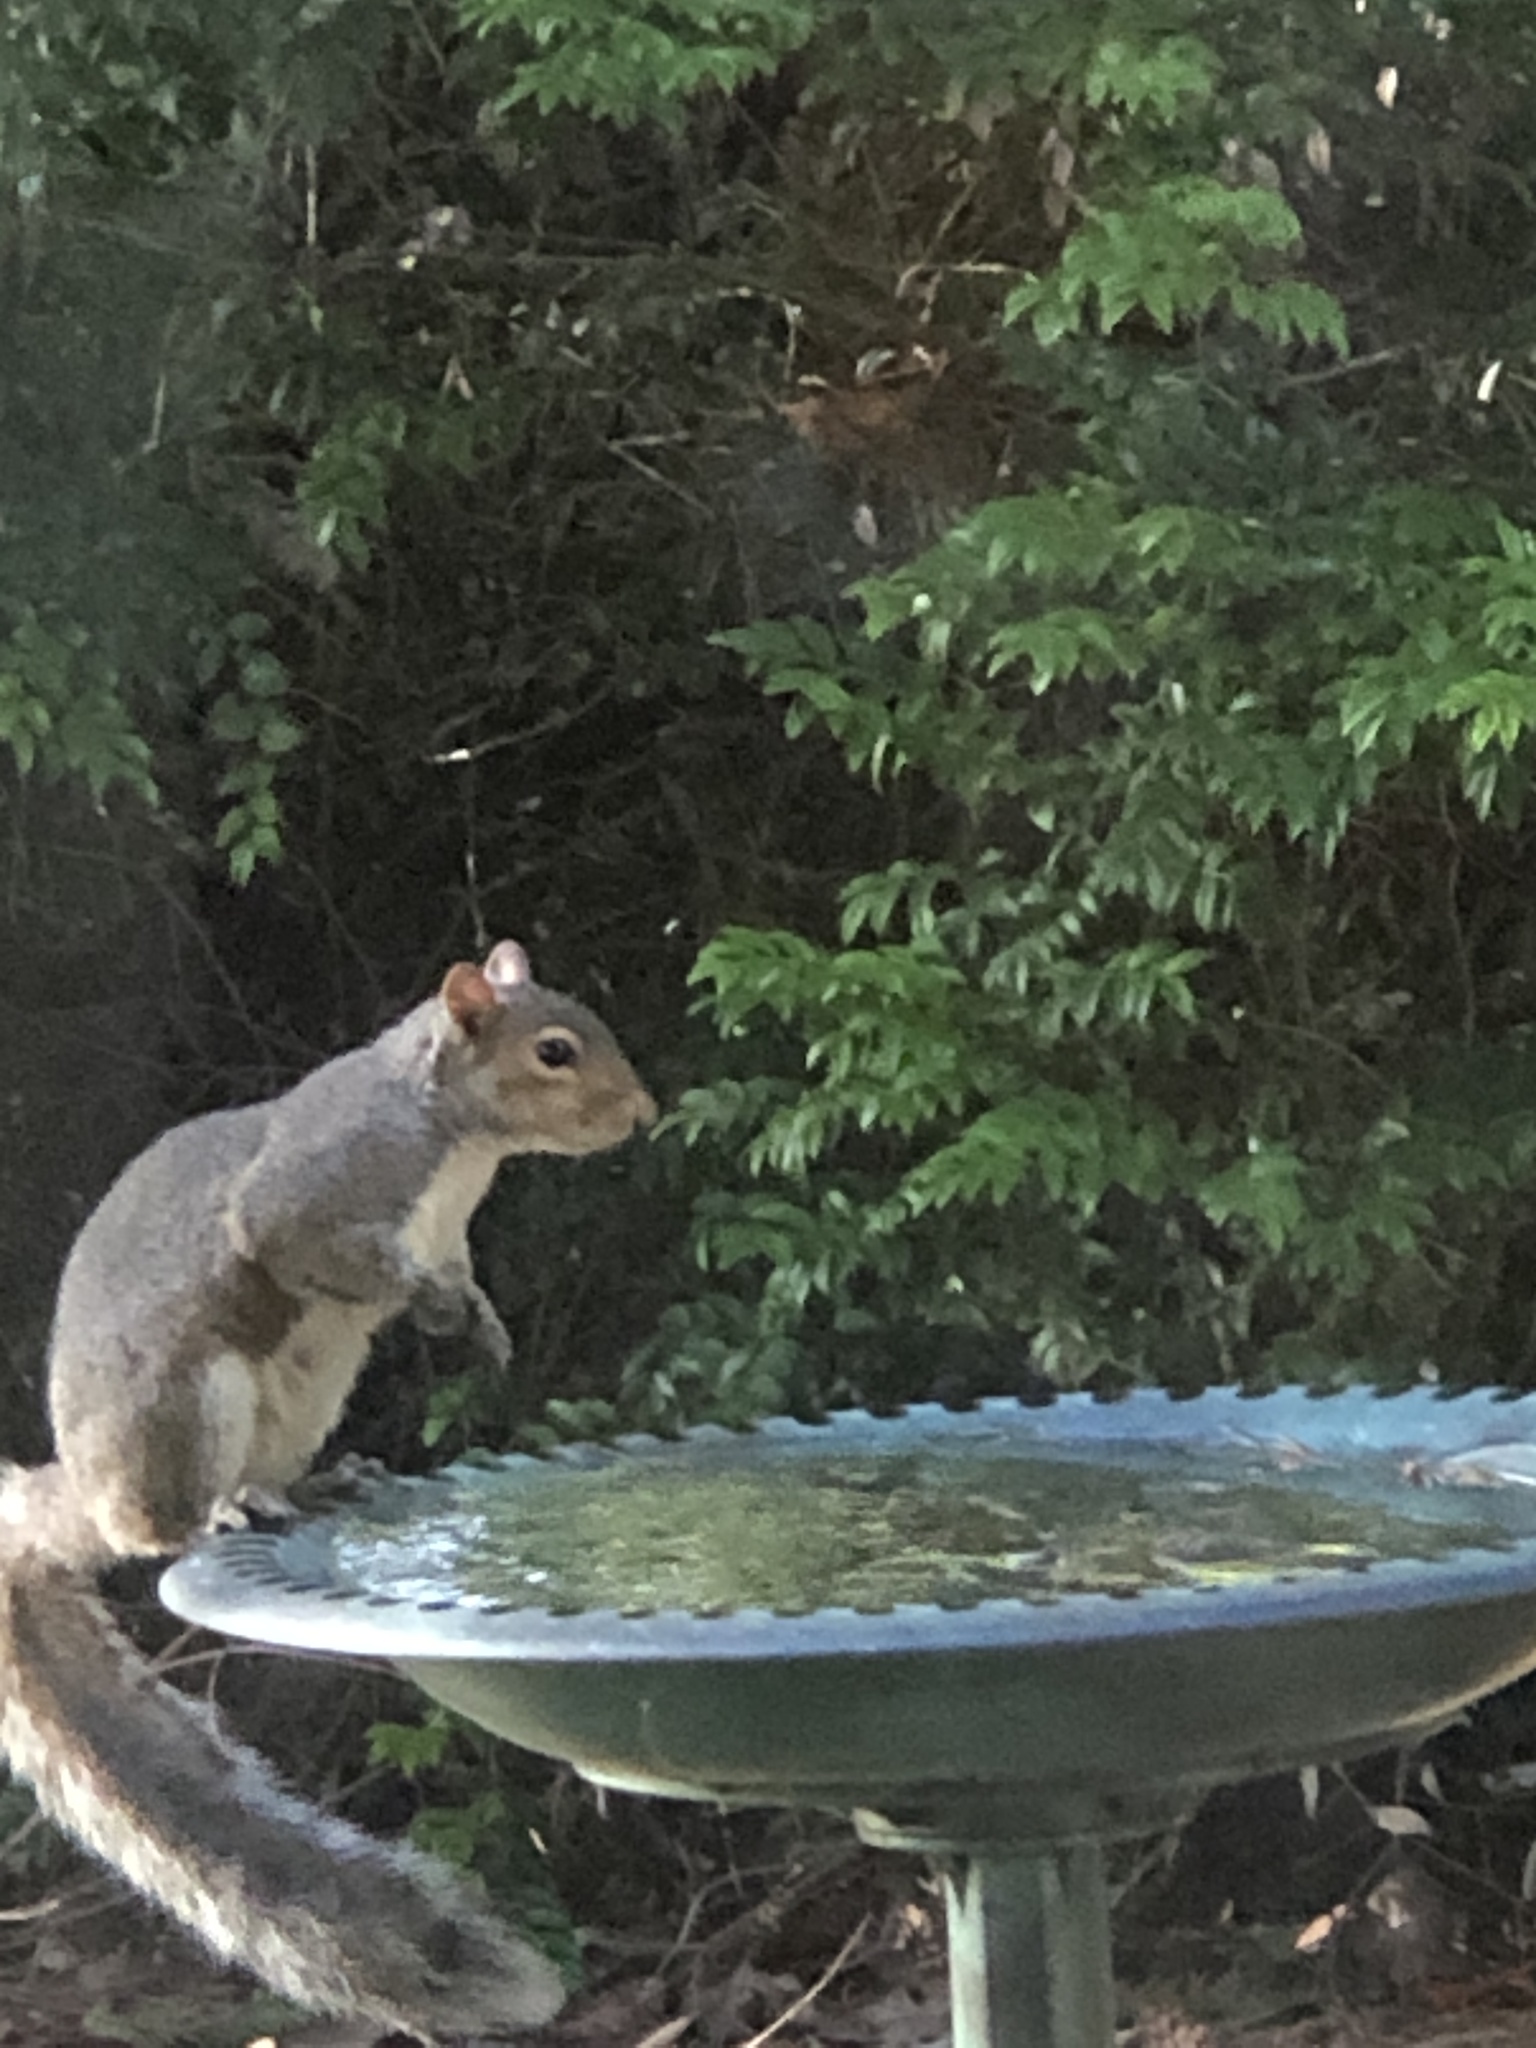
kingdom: Animalia
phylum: Chordata
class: Mammalia
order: Rodentia
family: Sciuridae
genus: Sciurus
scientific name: Sciurus carolinensis
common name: Eastern gray squirrel
